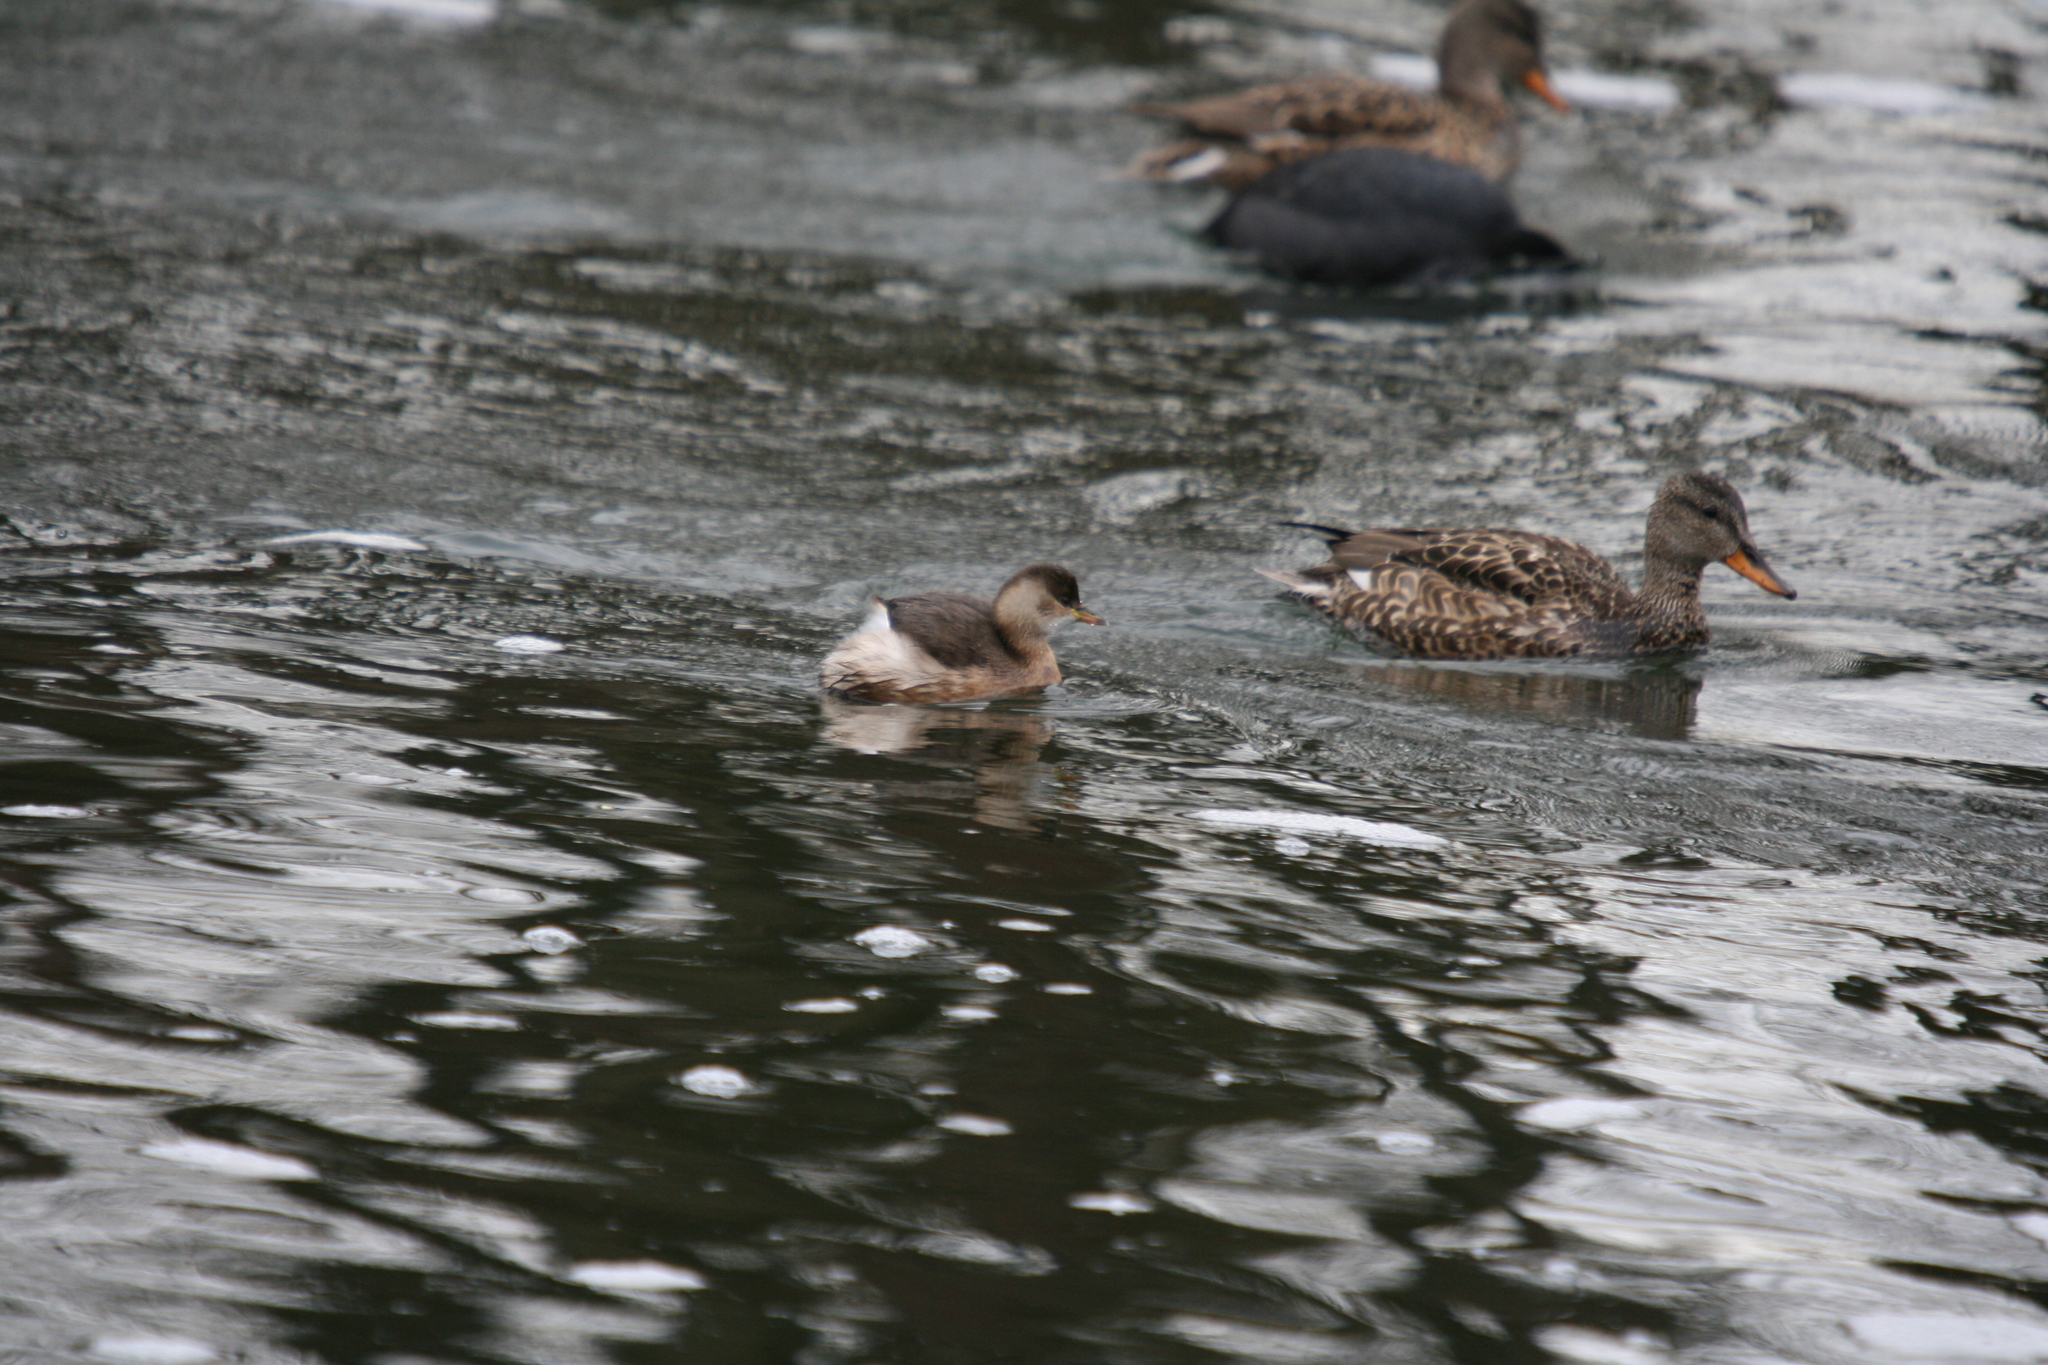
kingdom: Animalia
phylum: Chordata
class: Aves
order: Podicipediformes
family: Podicipedidae
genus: Tachybaptus
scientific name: Tachybaptus ruficollis
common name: Little grebe
